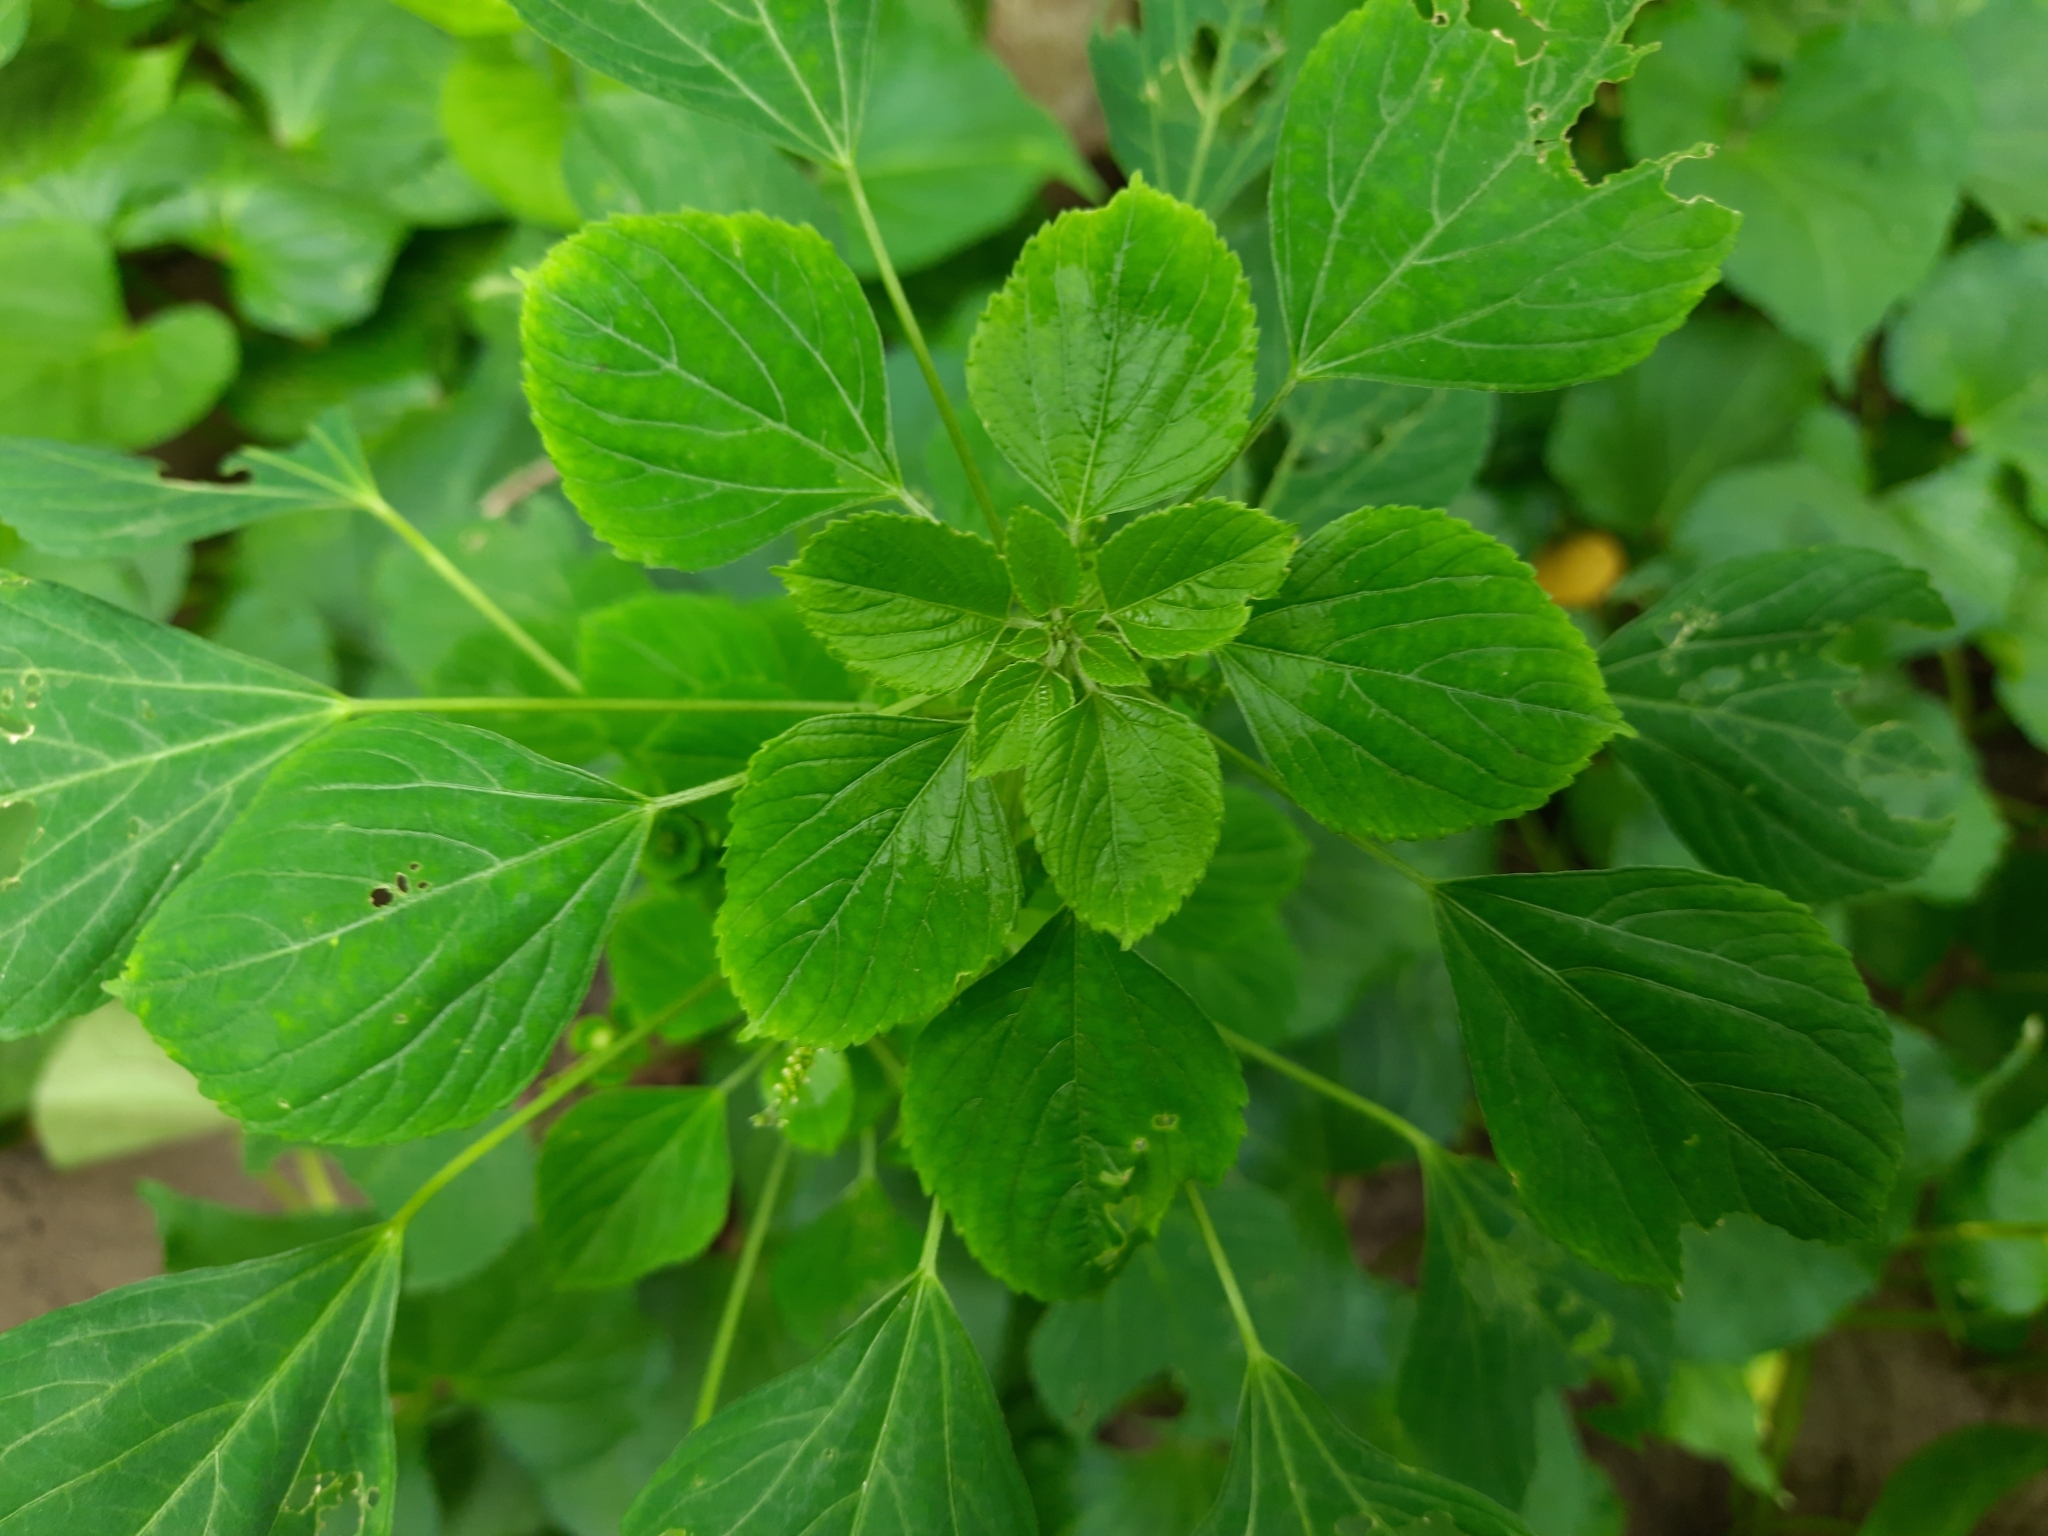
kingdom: Plantae
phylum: Tracheophyta
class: Magnoliopsida
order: Malpighiales
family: Euphorbiaceae
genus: Acalypha
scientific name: Acalypha indica
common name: Indian acalypha
